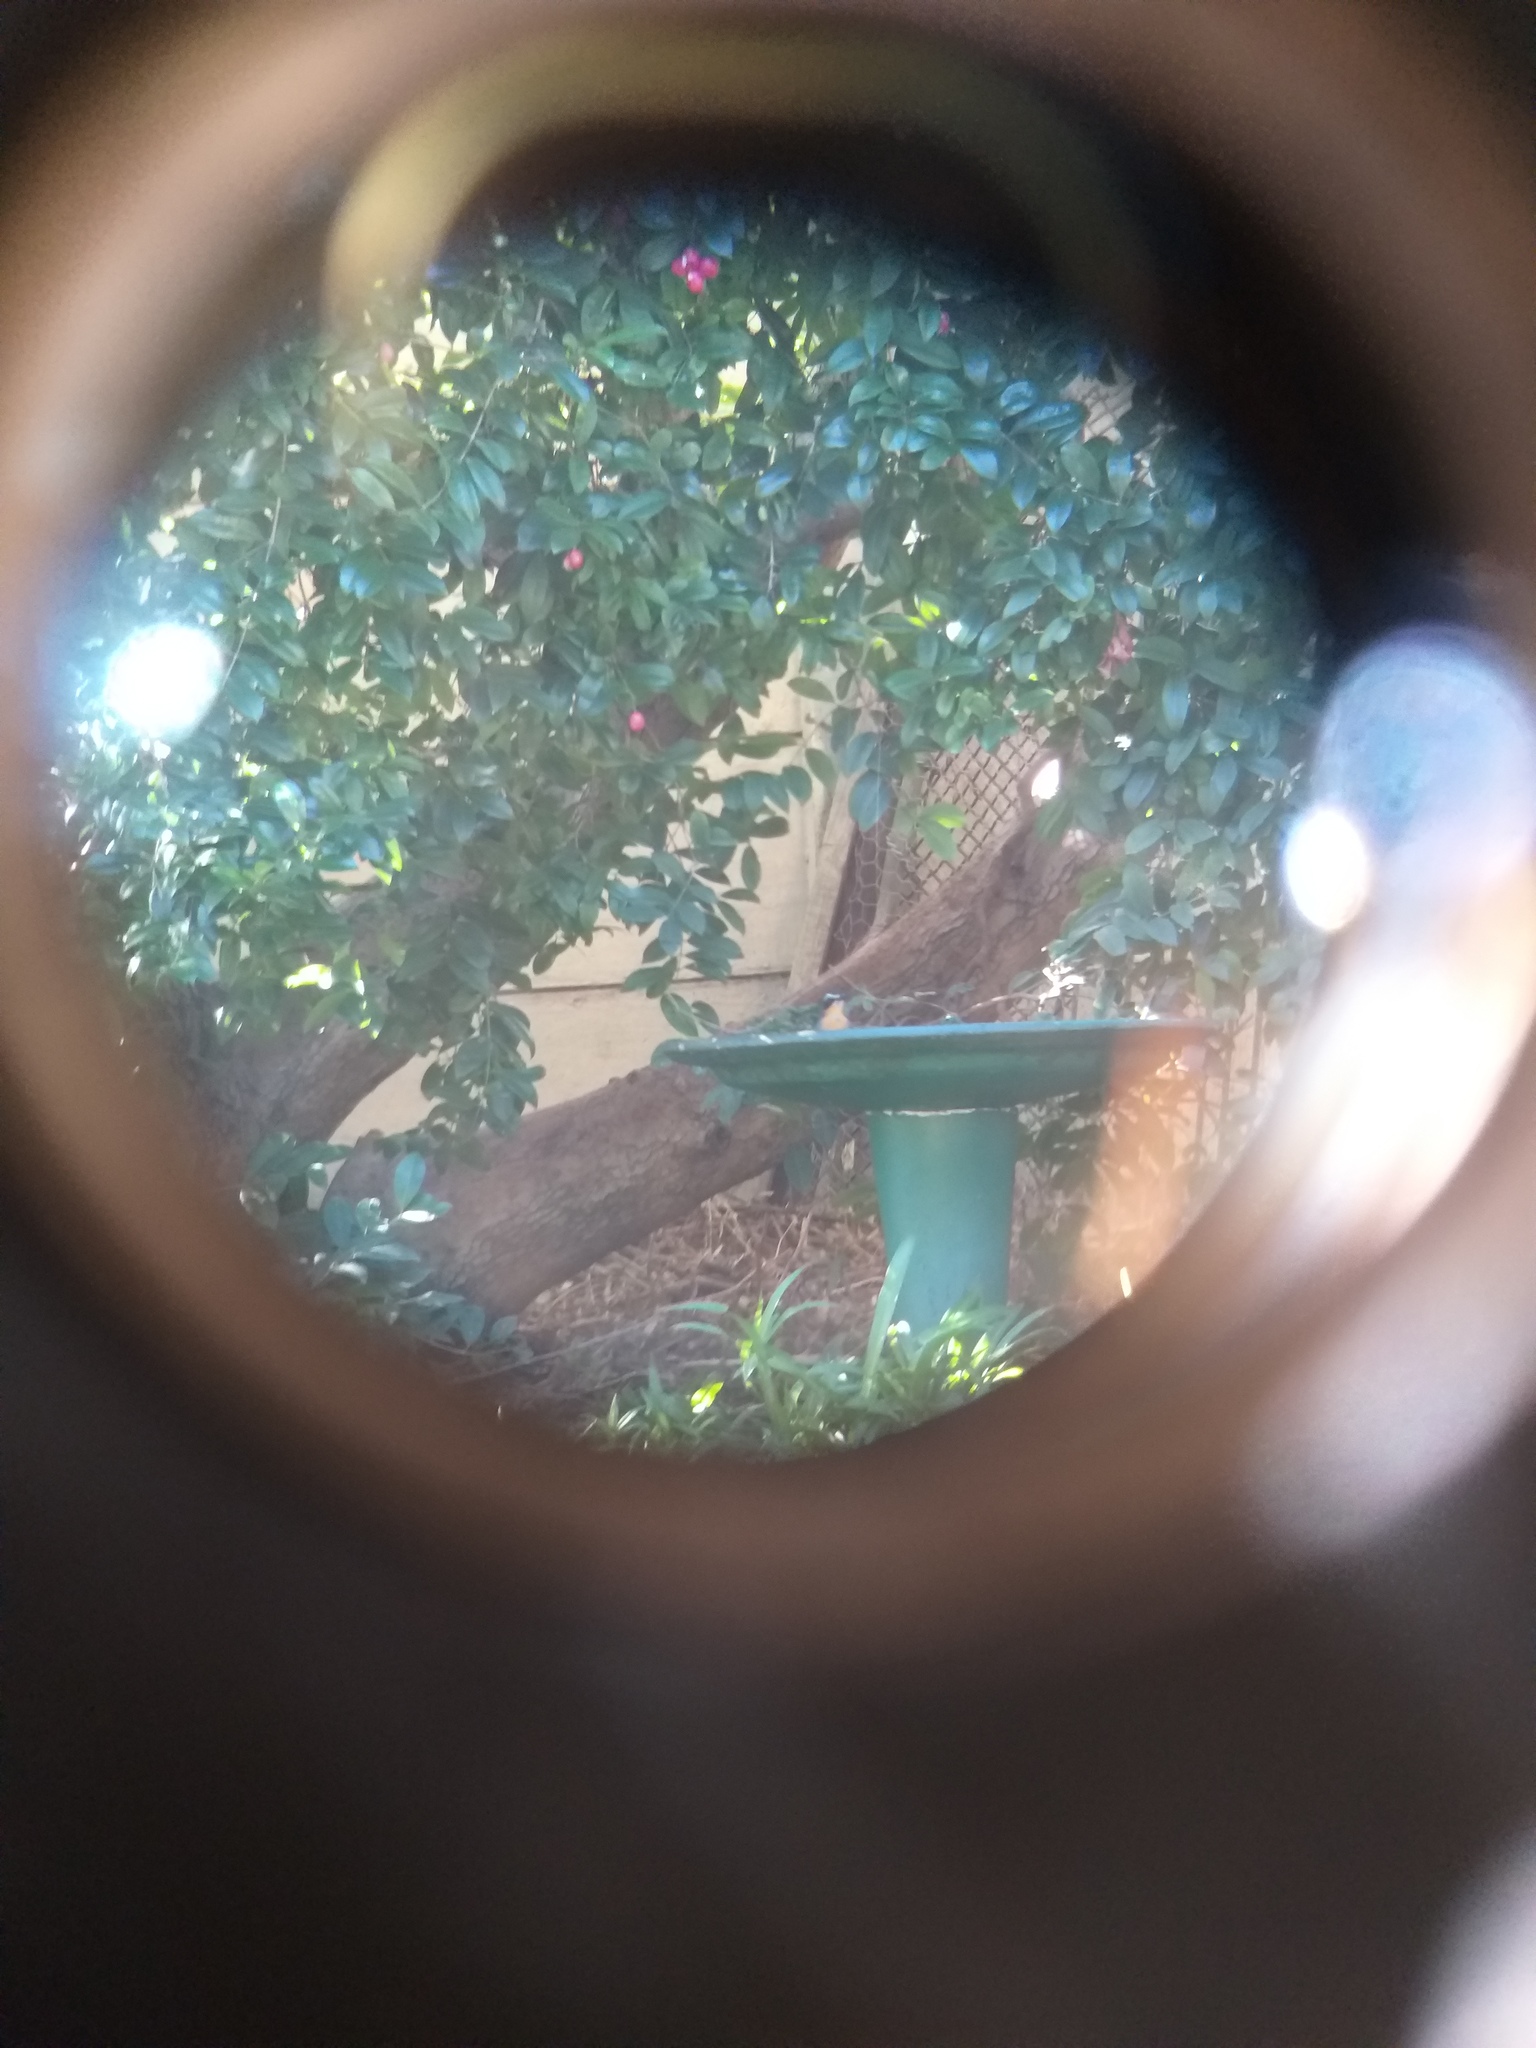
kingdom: Animalia
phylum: Chordata
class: Aves
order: Passeriformes
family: Muscicapidae
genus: Cossypha
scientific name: Cossypha caffra
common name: Cape robin-chat
